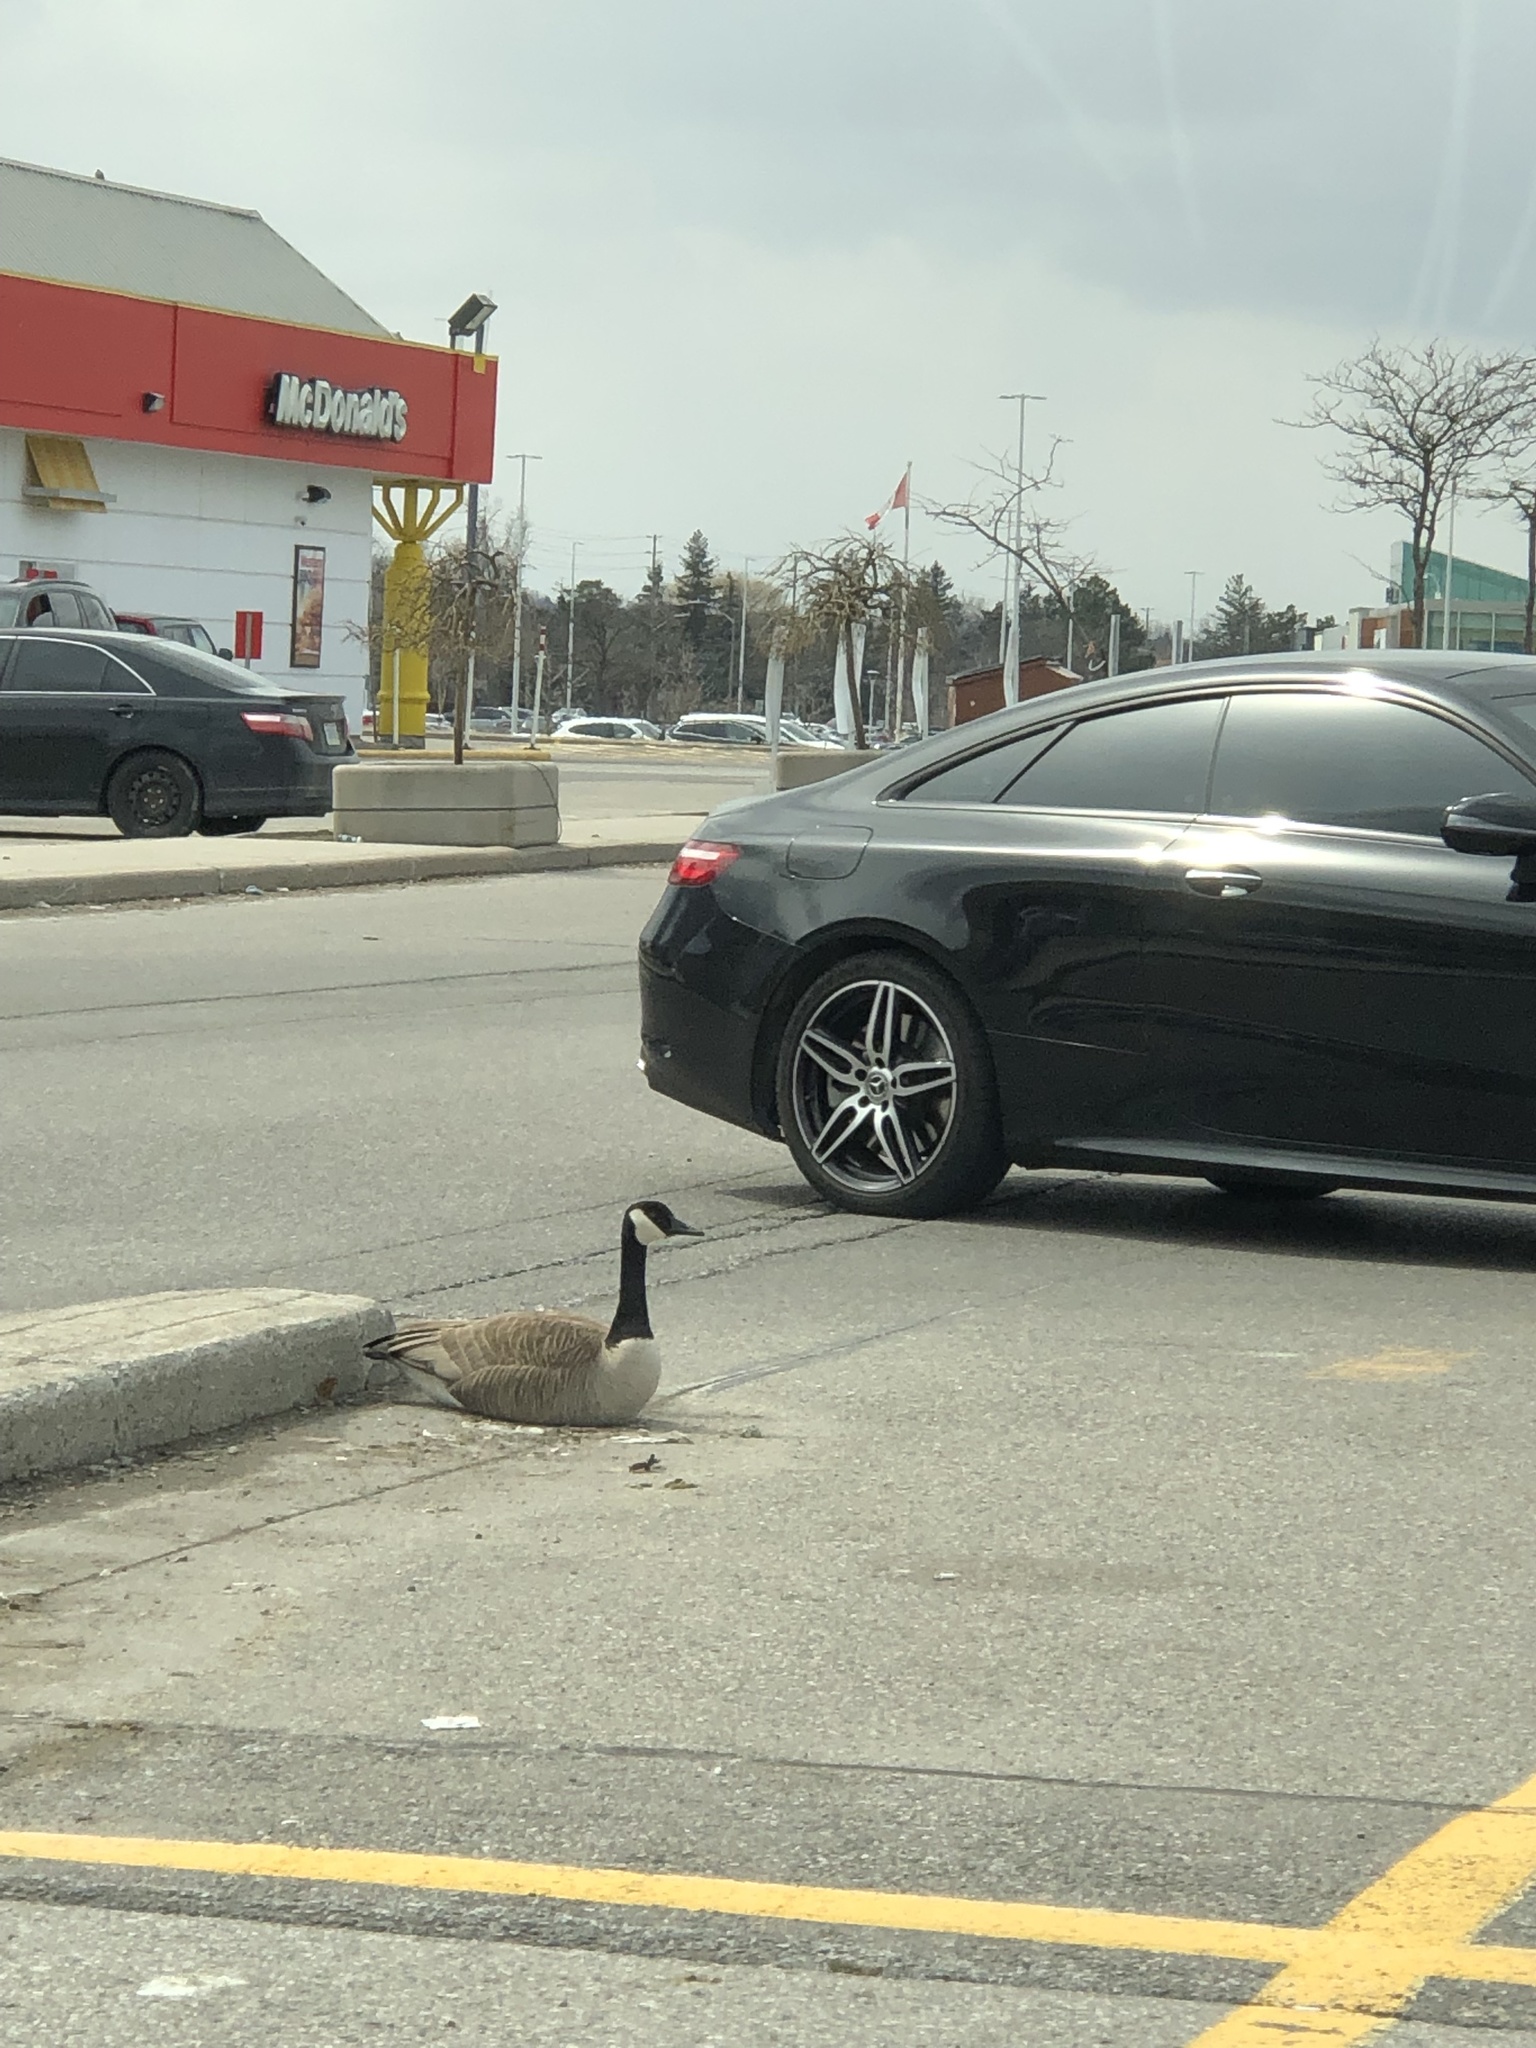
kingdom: Animalia
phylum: Chordata
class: Aves
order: Anseriformes
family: Anatidae
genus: Branta
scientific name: Branta canadensis
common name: Canada goose
